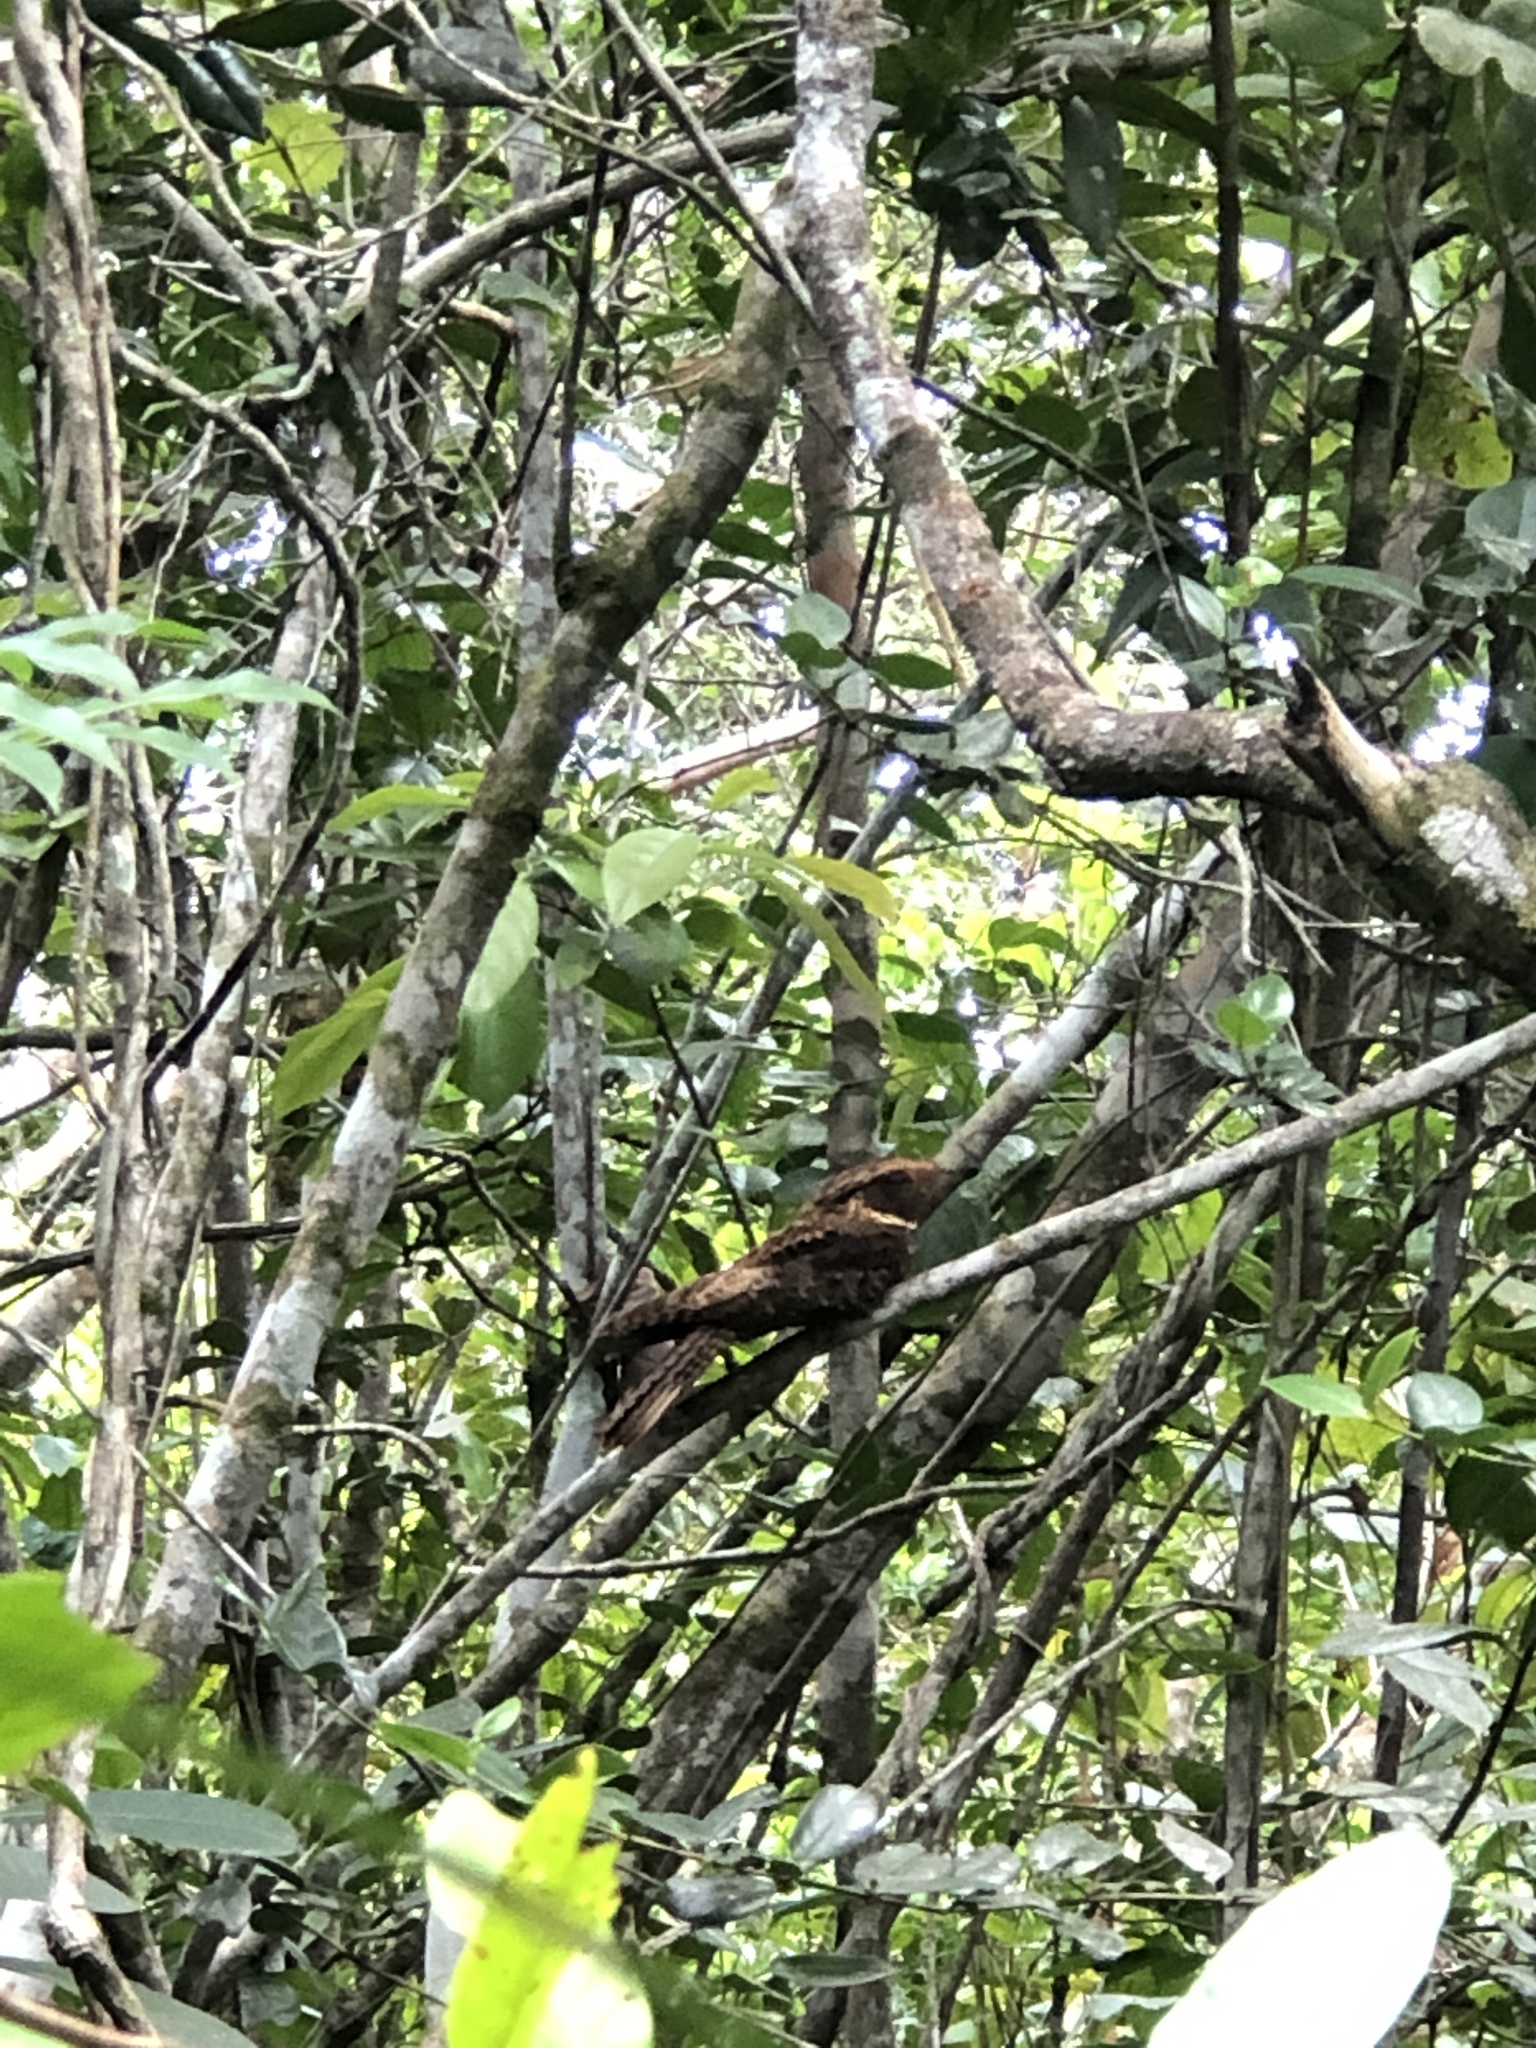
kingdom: Animalia
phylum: Chordata
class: Aves
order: Caprimulgiformes
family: Caprimulgidae
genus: Antrostomus
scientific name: Antrostomus rufus
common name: Rufous nightjar
